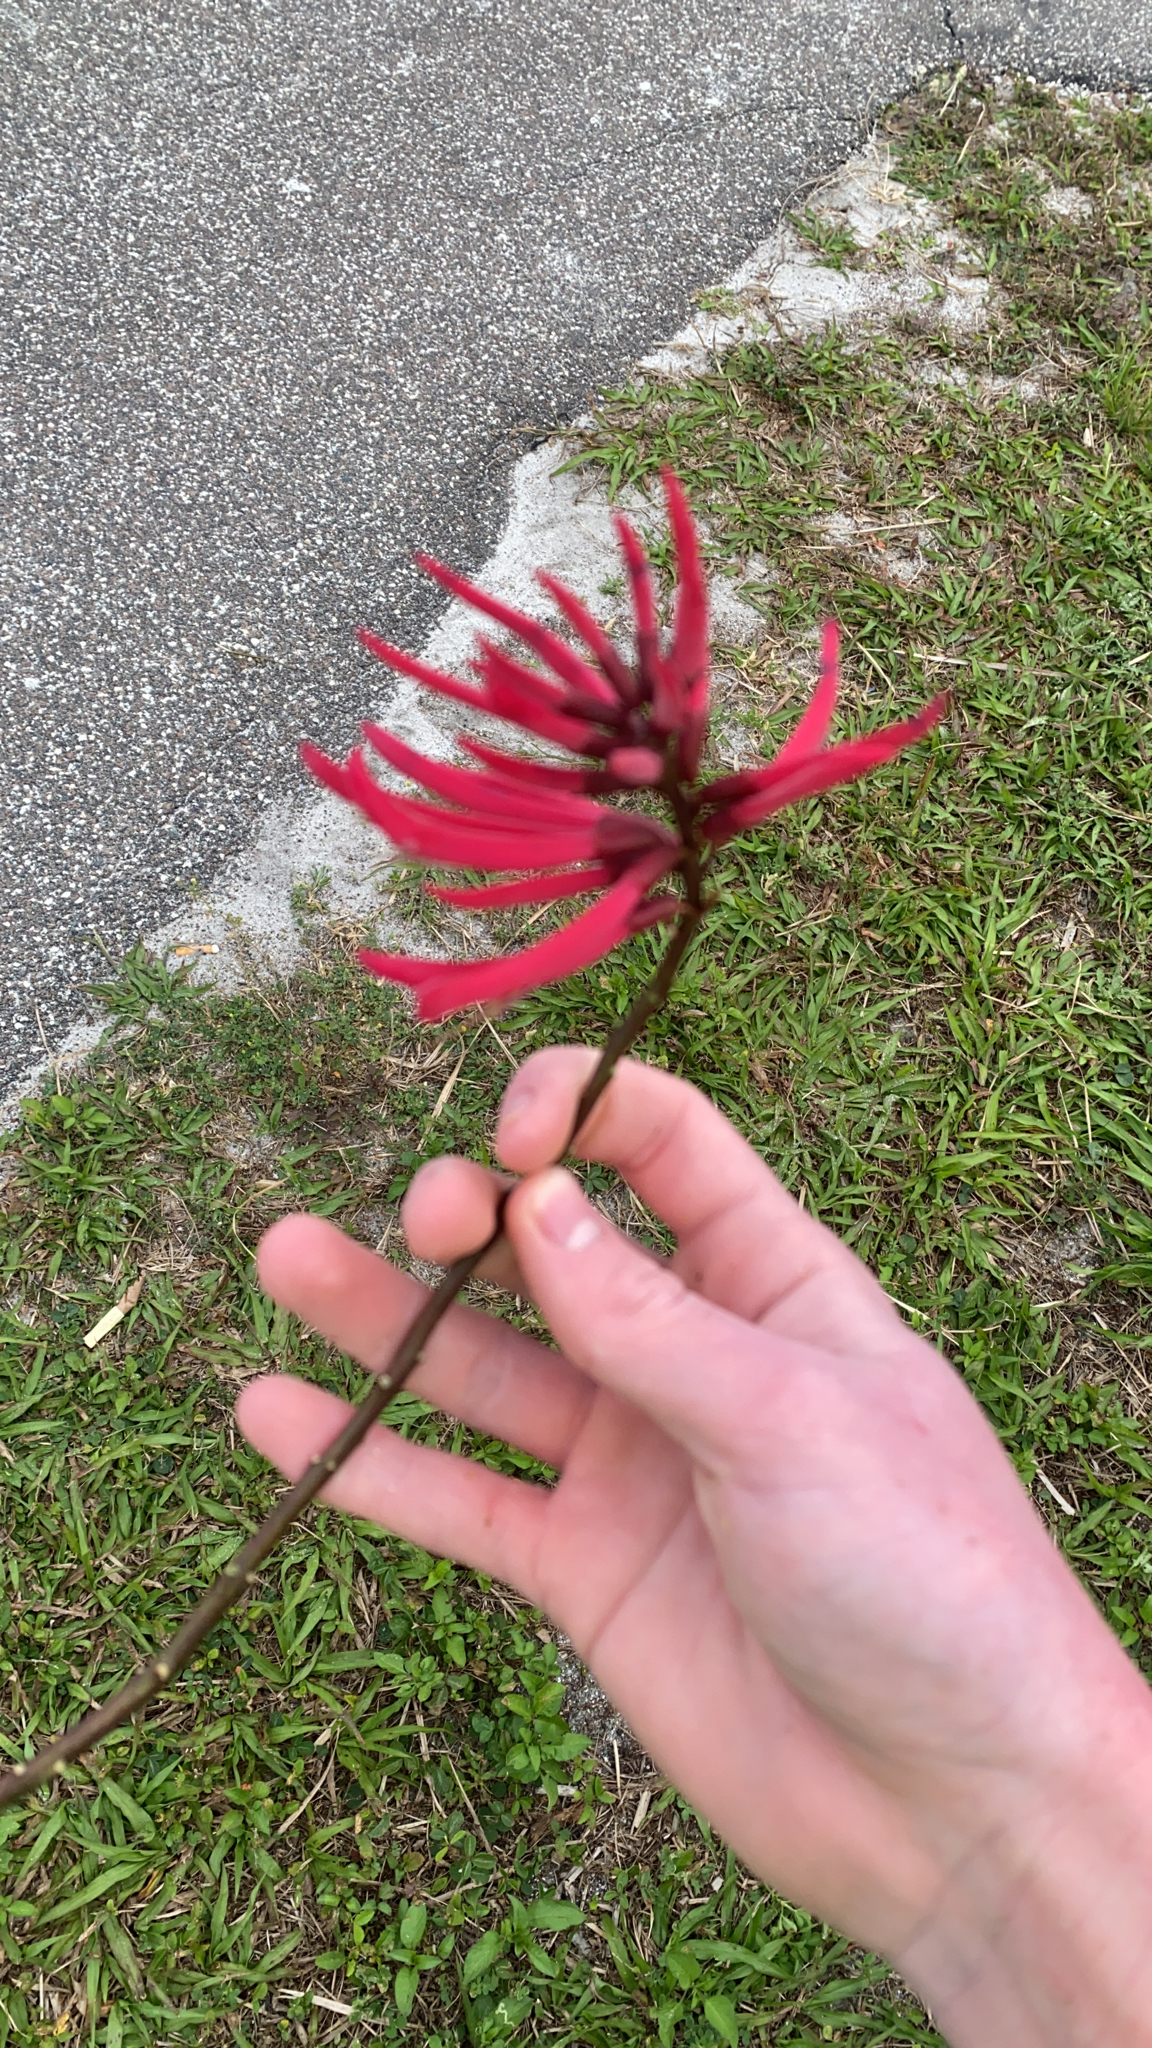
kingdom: Plantae
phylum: Tracheophyta
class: Magnoliopsida
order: Fabales
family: Fabaceae
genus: Erythrina
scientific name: Erythrina herbacea
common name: Coral-bean
